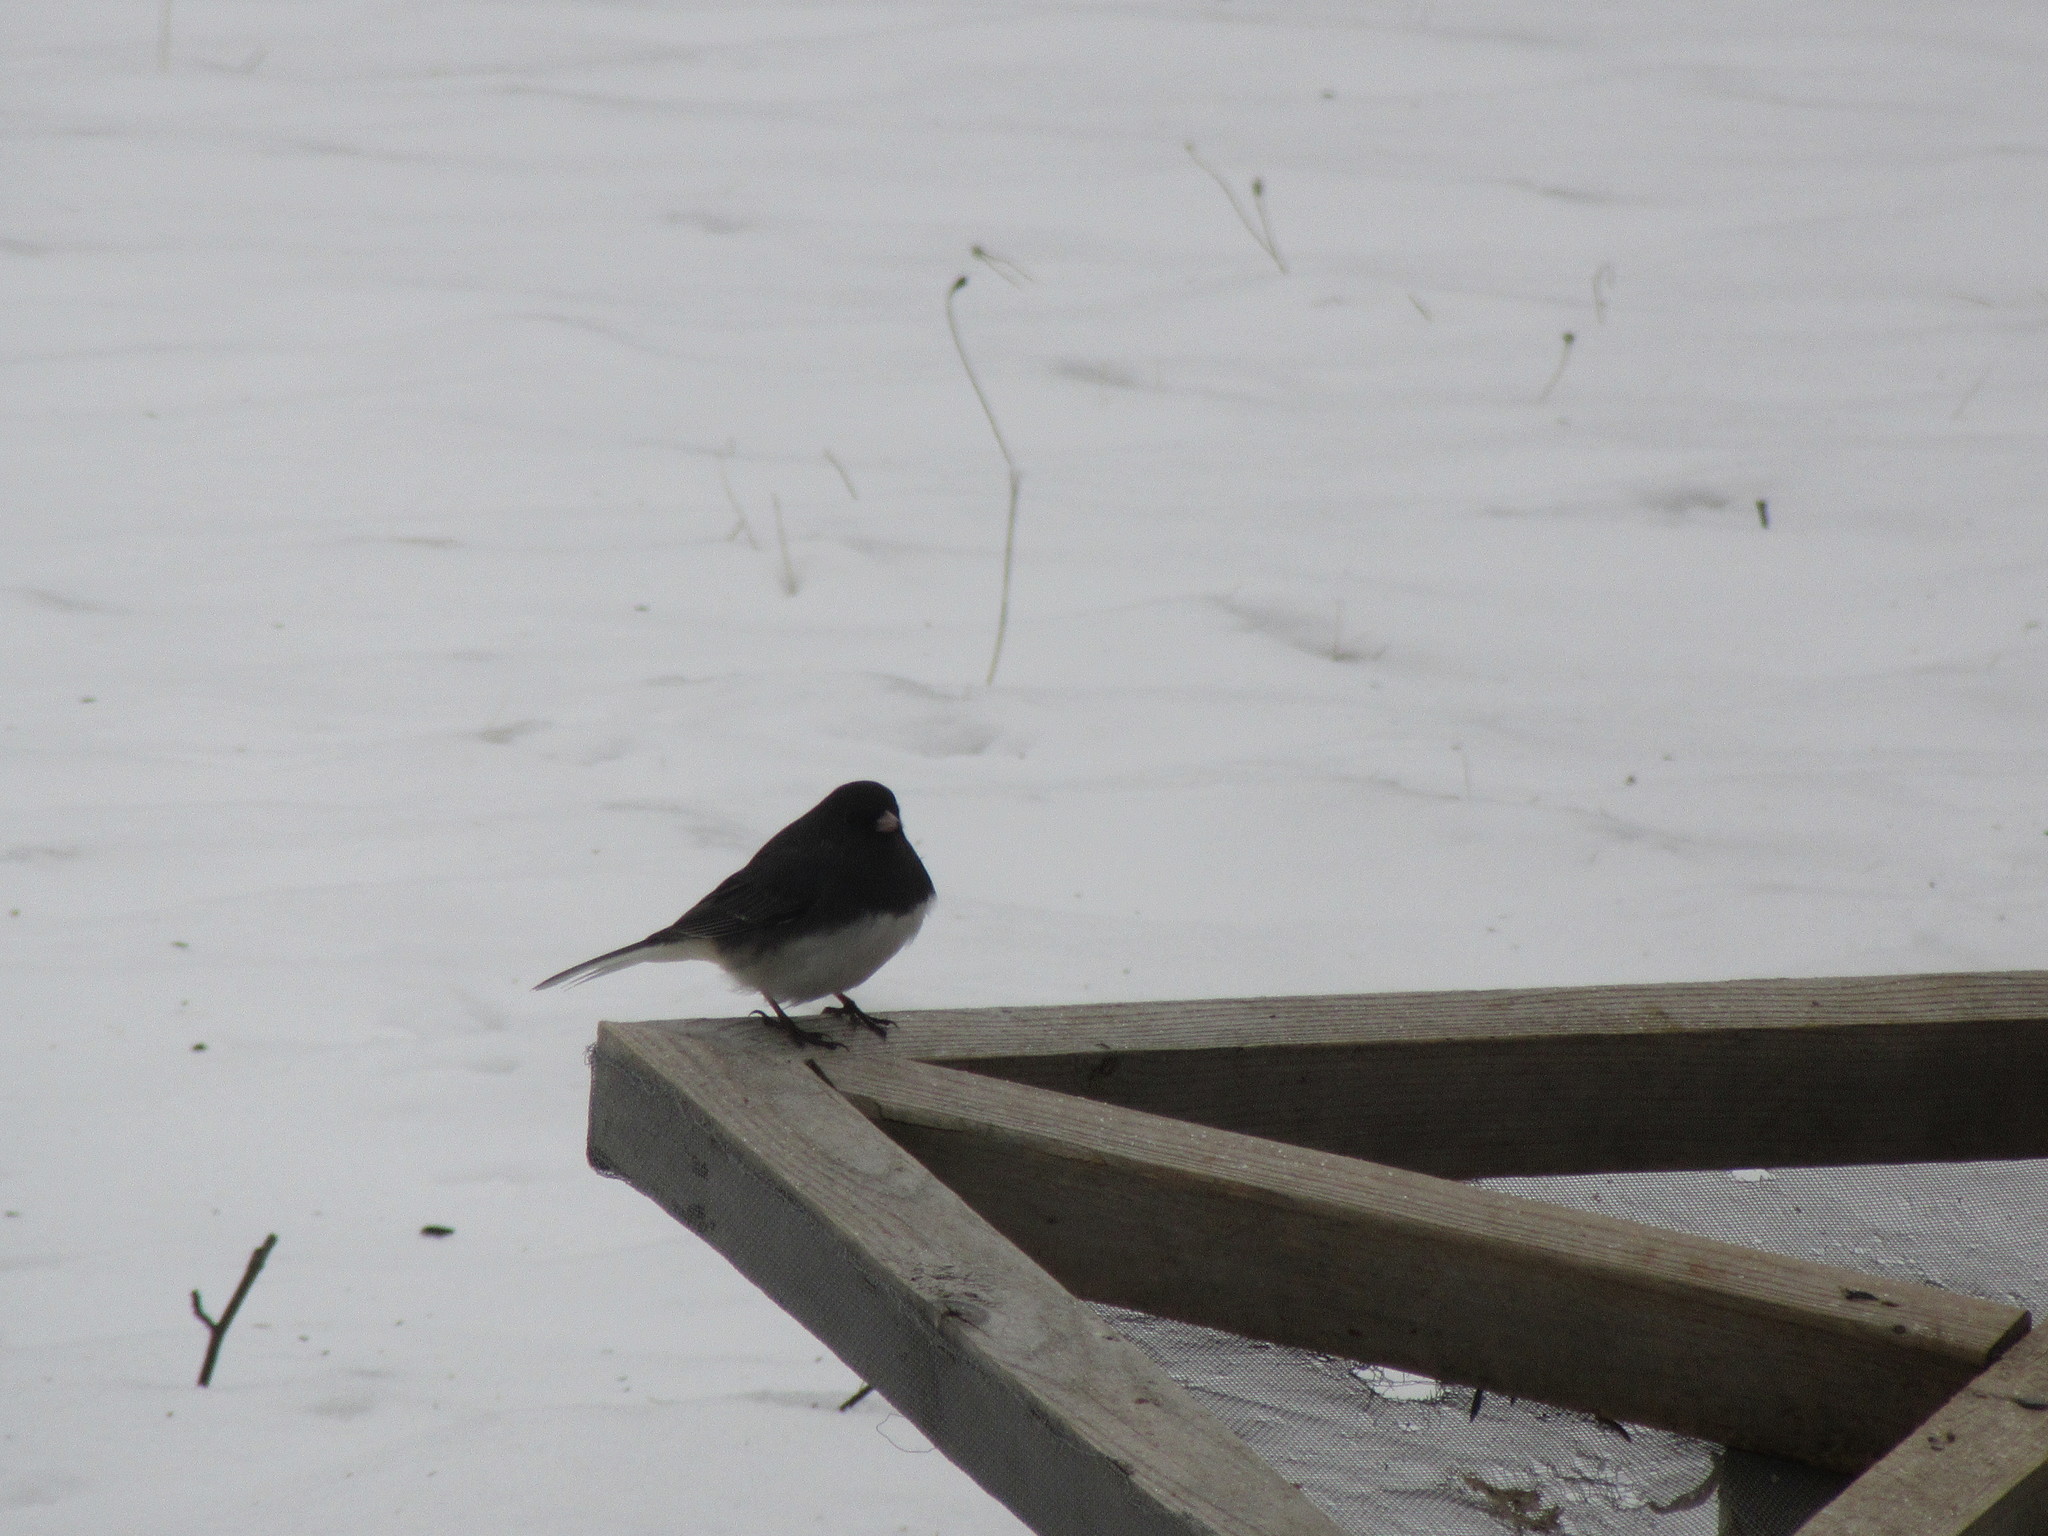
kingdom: Animalia
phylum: Chordata
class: Aves
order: Passeriformes
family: Passerellidae
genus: Junco
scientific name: Junco hyemalis
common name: Dark-eyed junco
